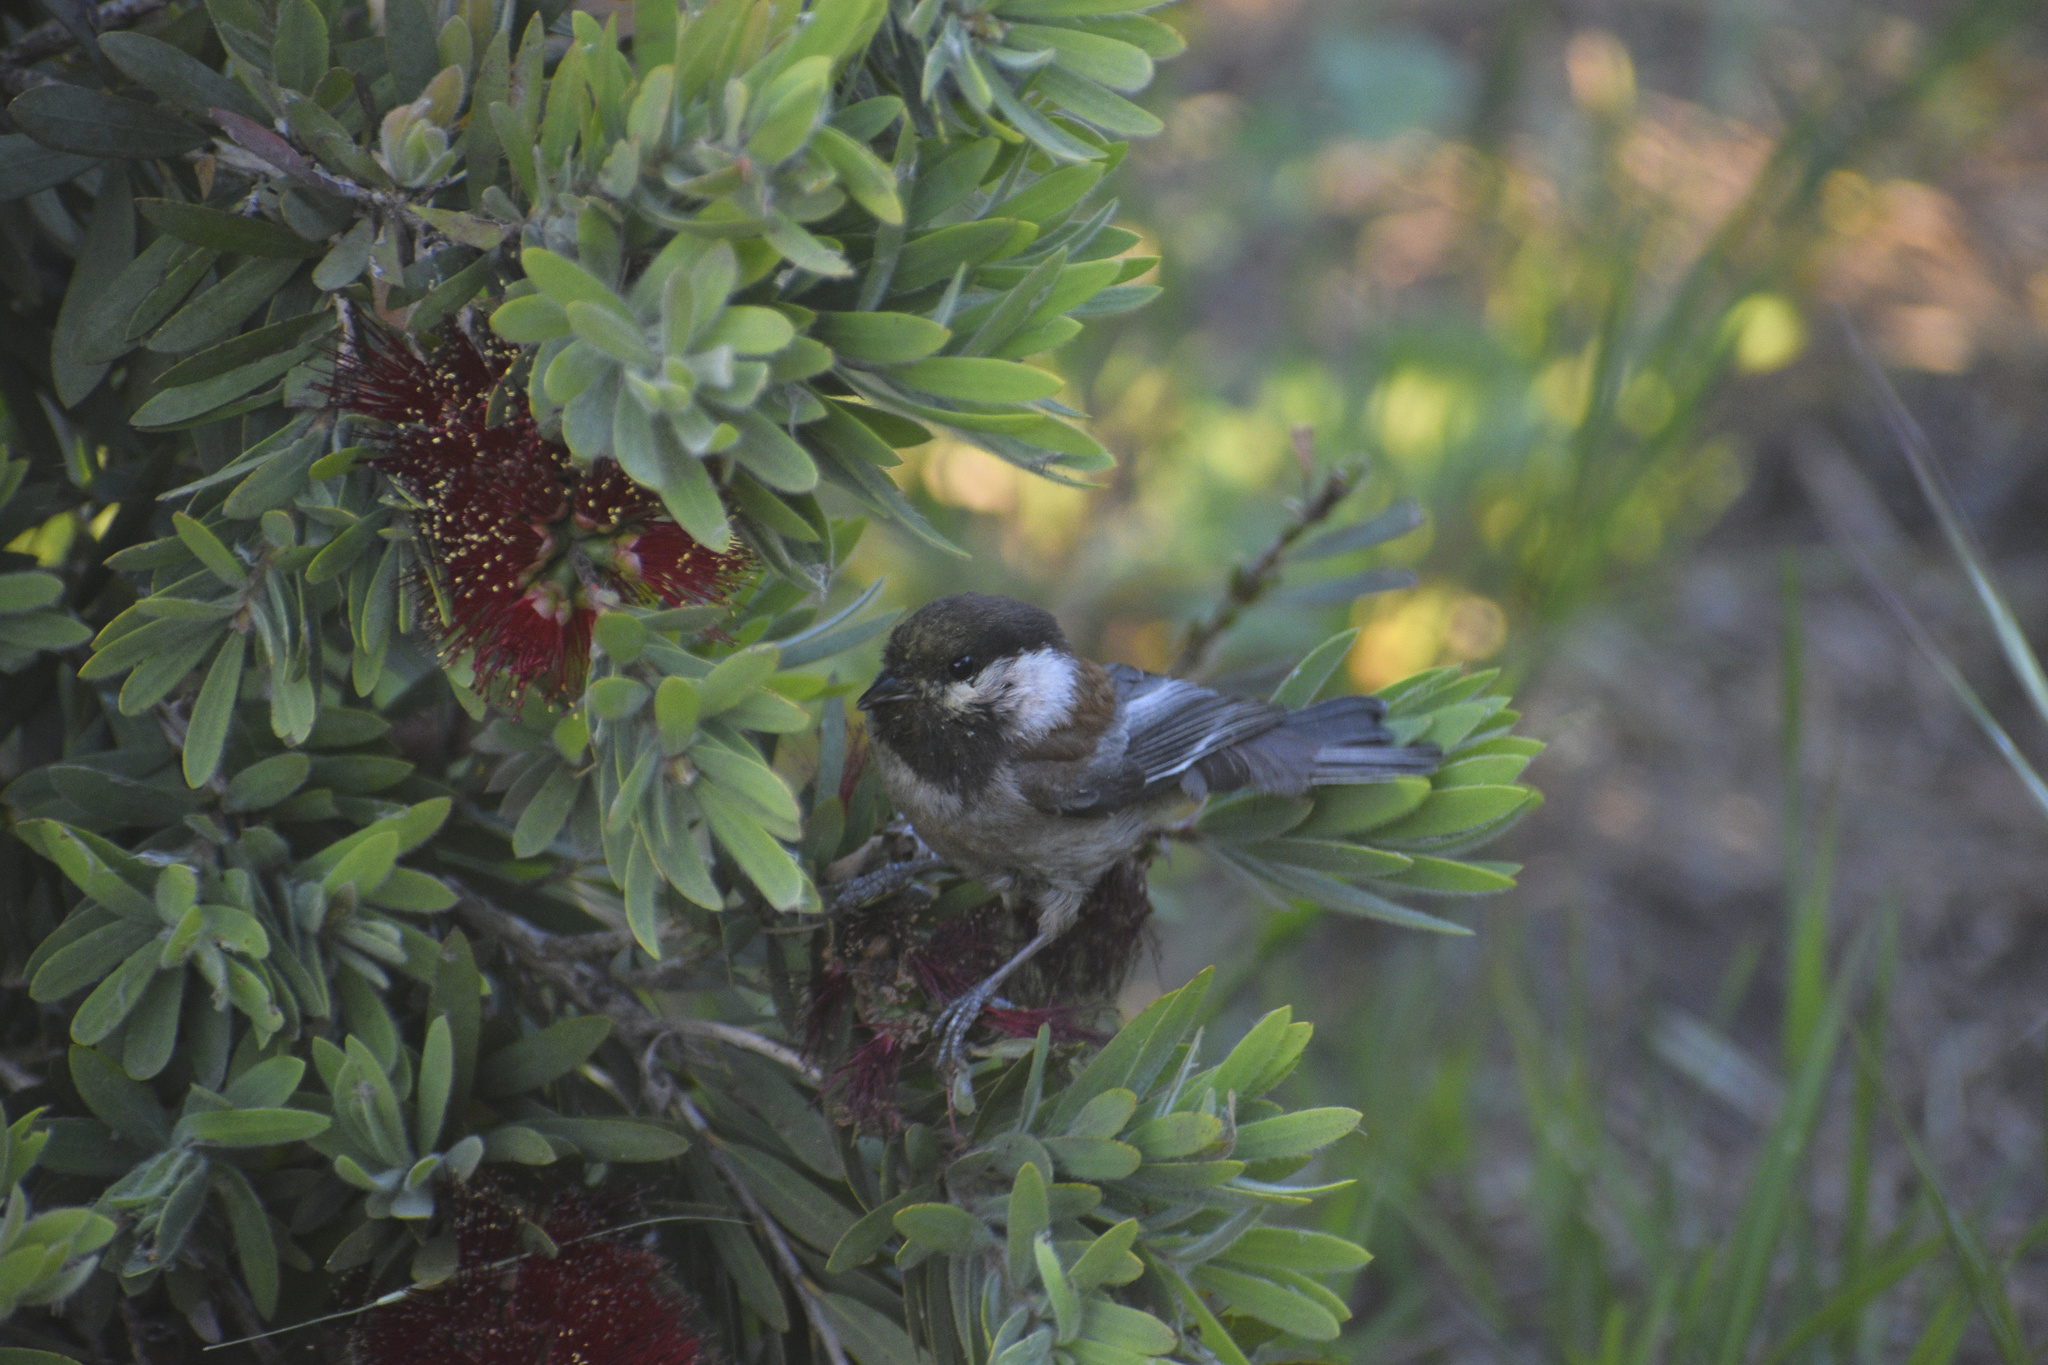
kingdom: Animalia
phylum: Chordata
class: Aves
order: Passeriformes
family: Paridae
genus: Poecile
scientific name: Poecile rufescens
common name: Chestnut-backed chickadee
